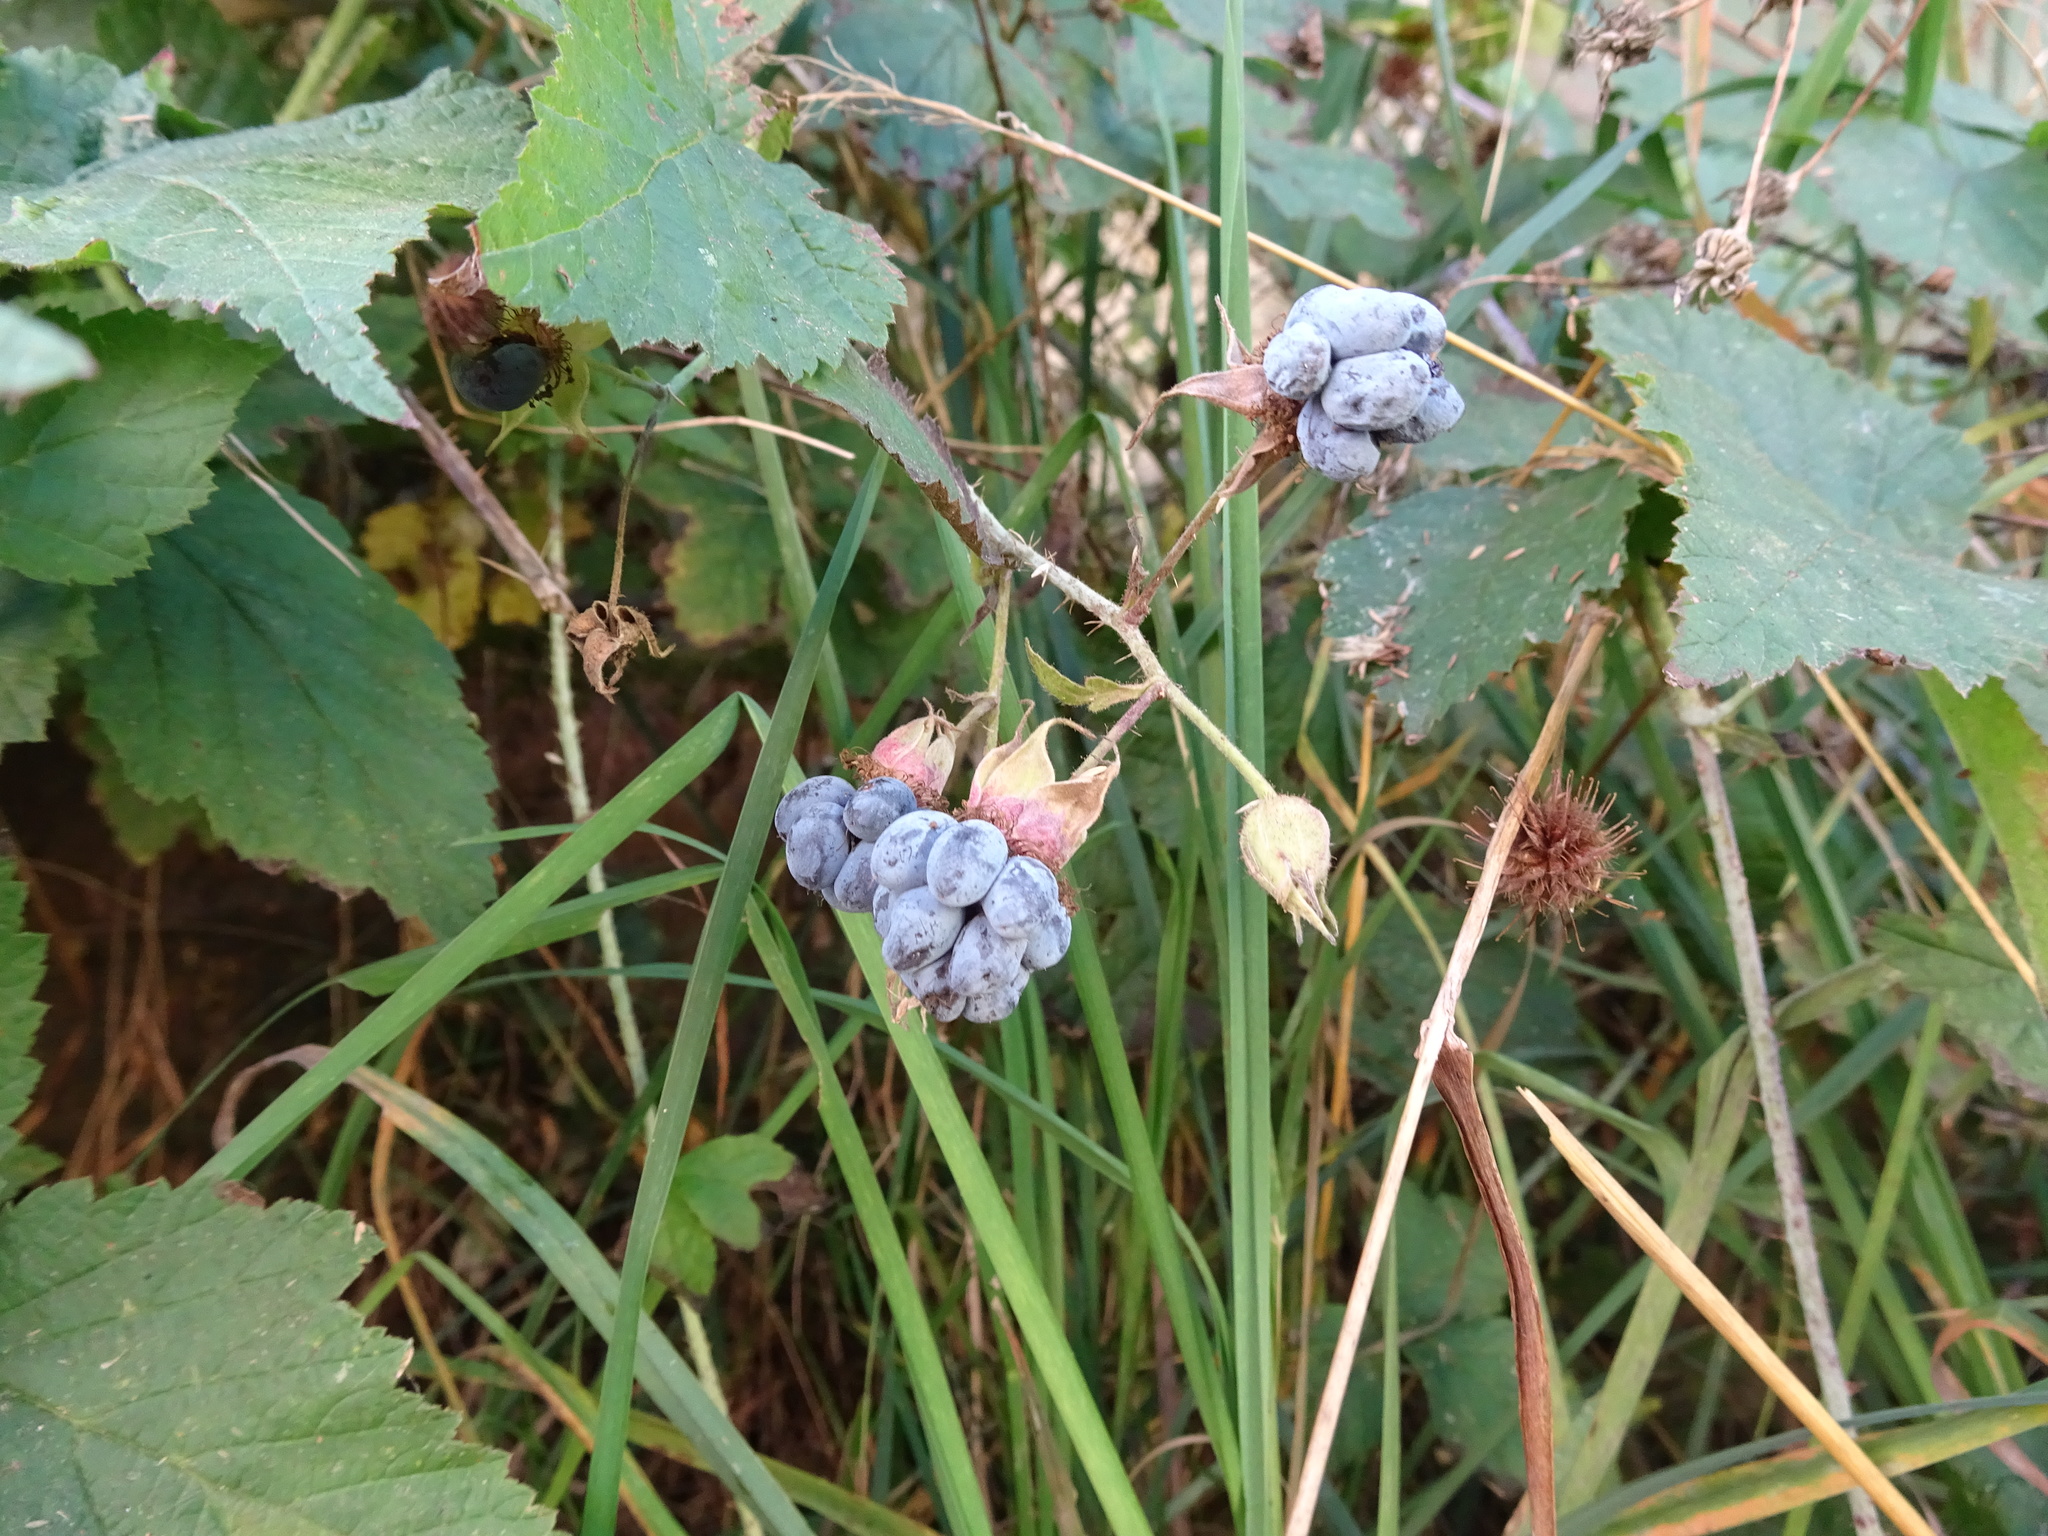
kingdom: Plantae
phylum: Tracheophyta
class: Magnoliopsida
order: Rosales
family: Rosaceae
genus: Rubus
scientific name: Rubus caesius
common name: Dewberry
